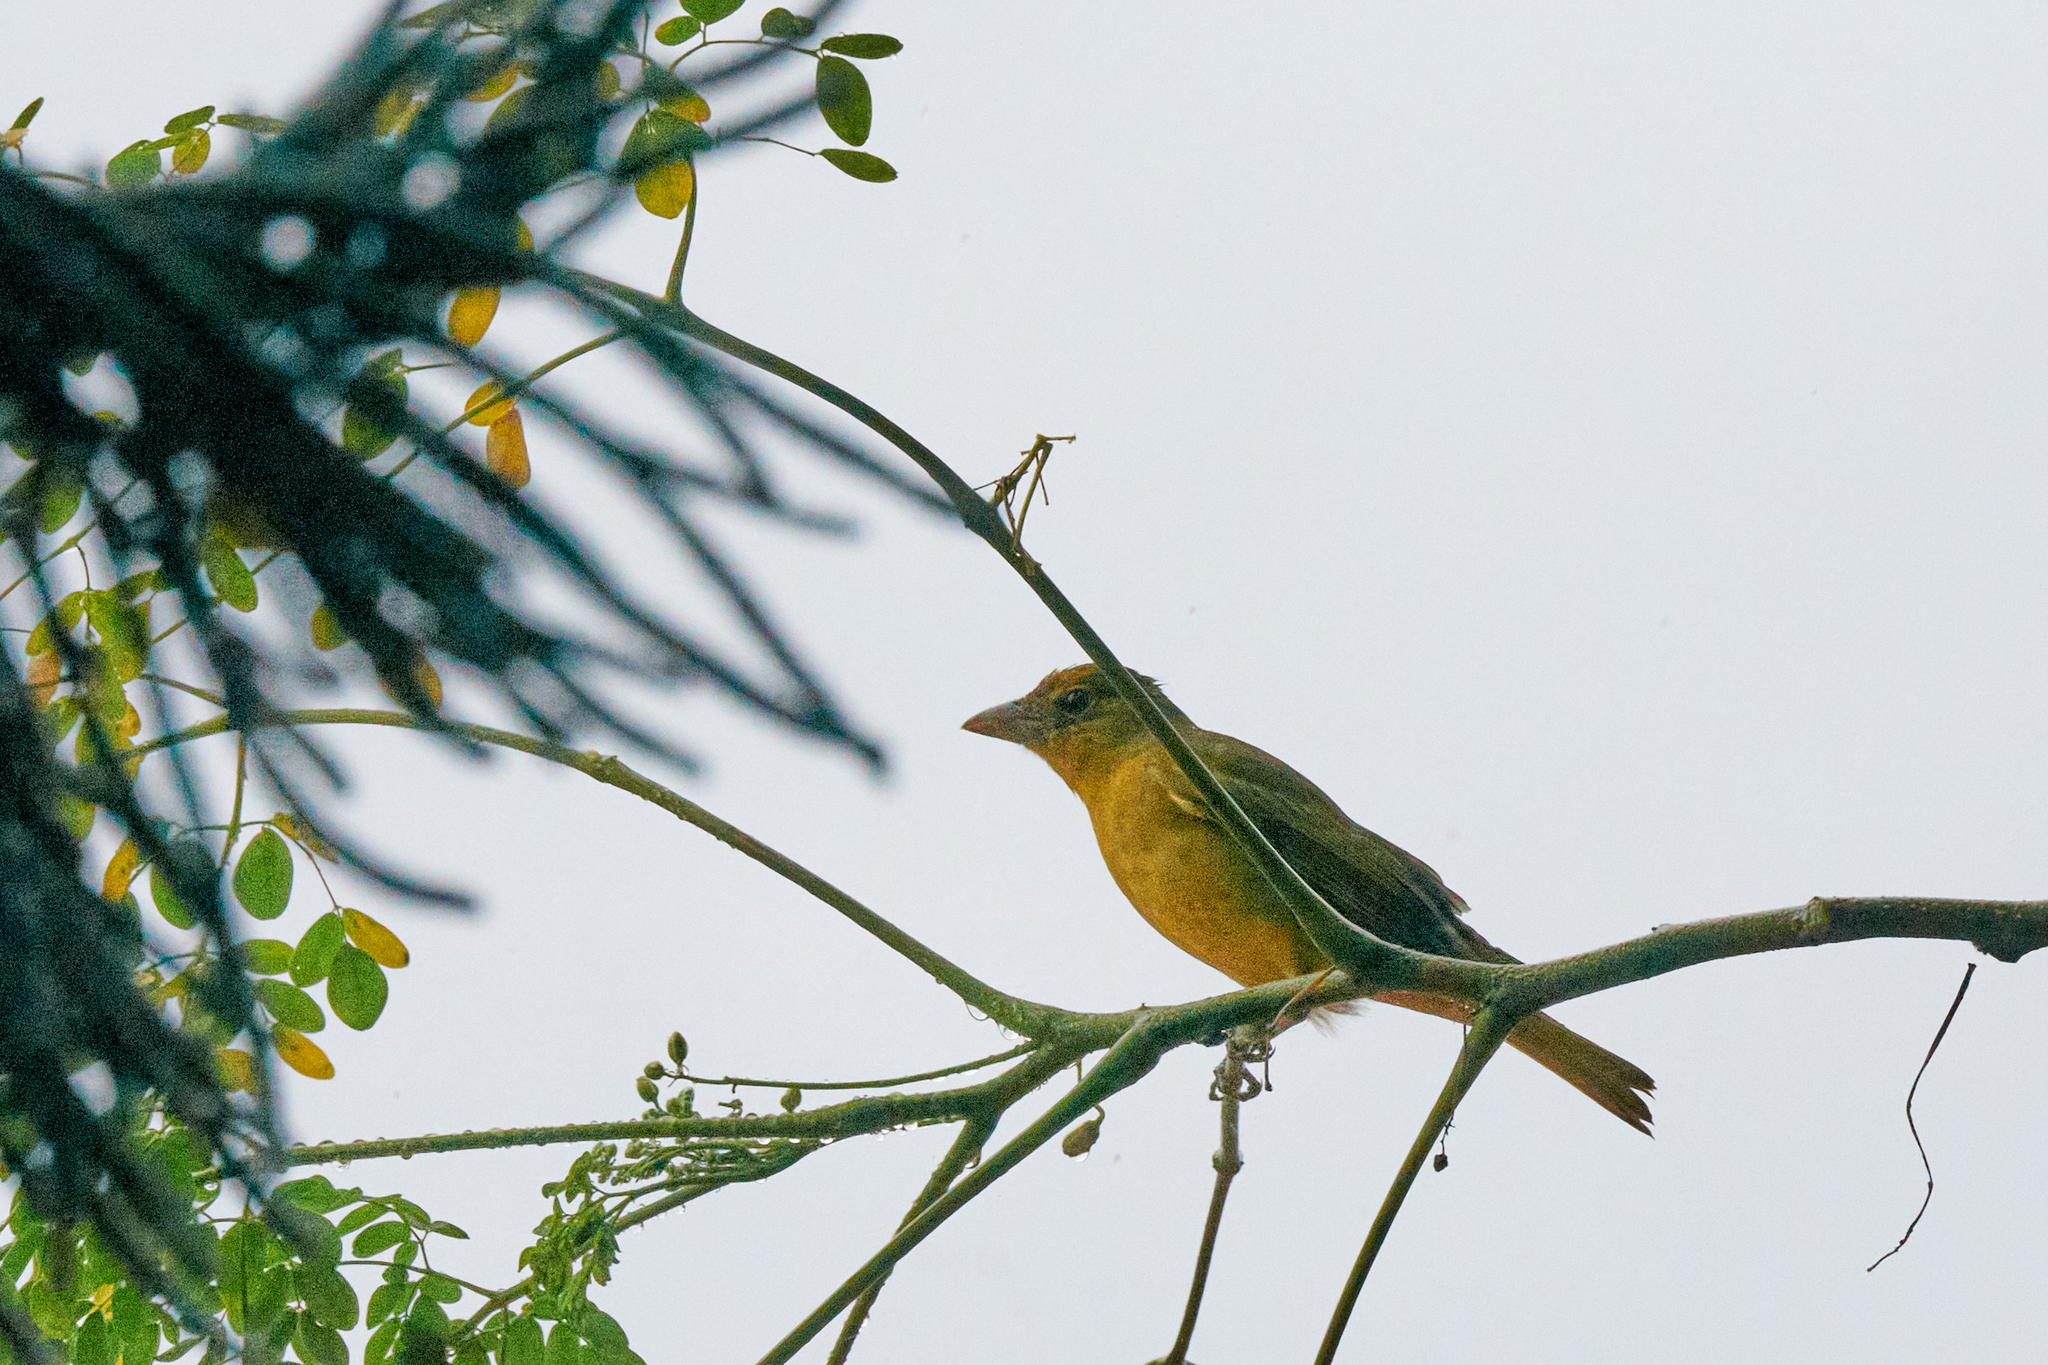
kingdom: Animalia
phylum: Chordata
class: Aves
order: Passeriformes
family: Cardinalidae
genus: Piranga
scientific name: Piranga rubra
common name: Summer tanager
